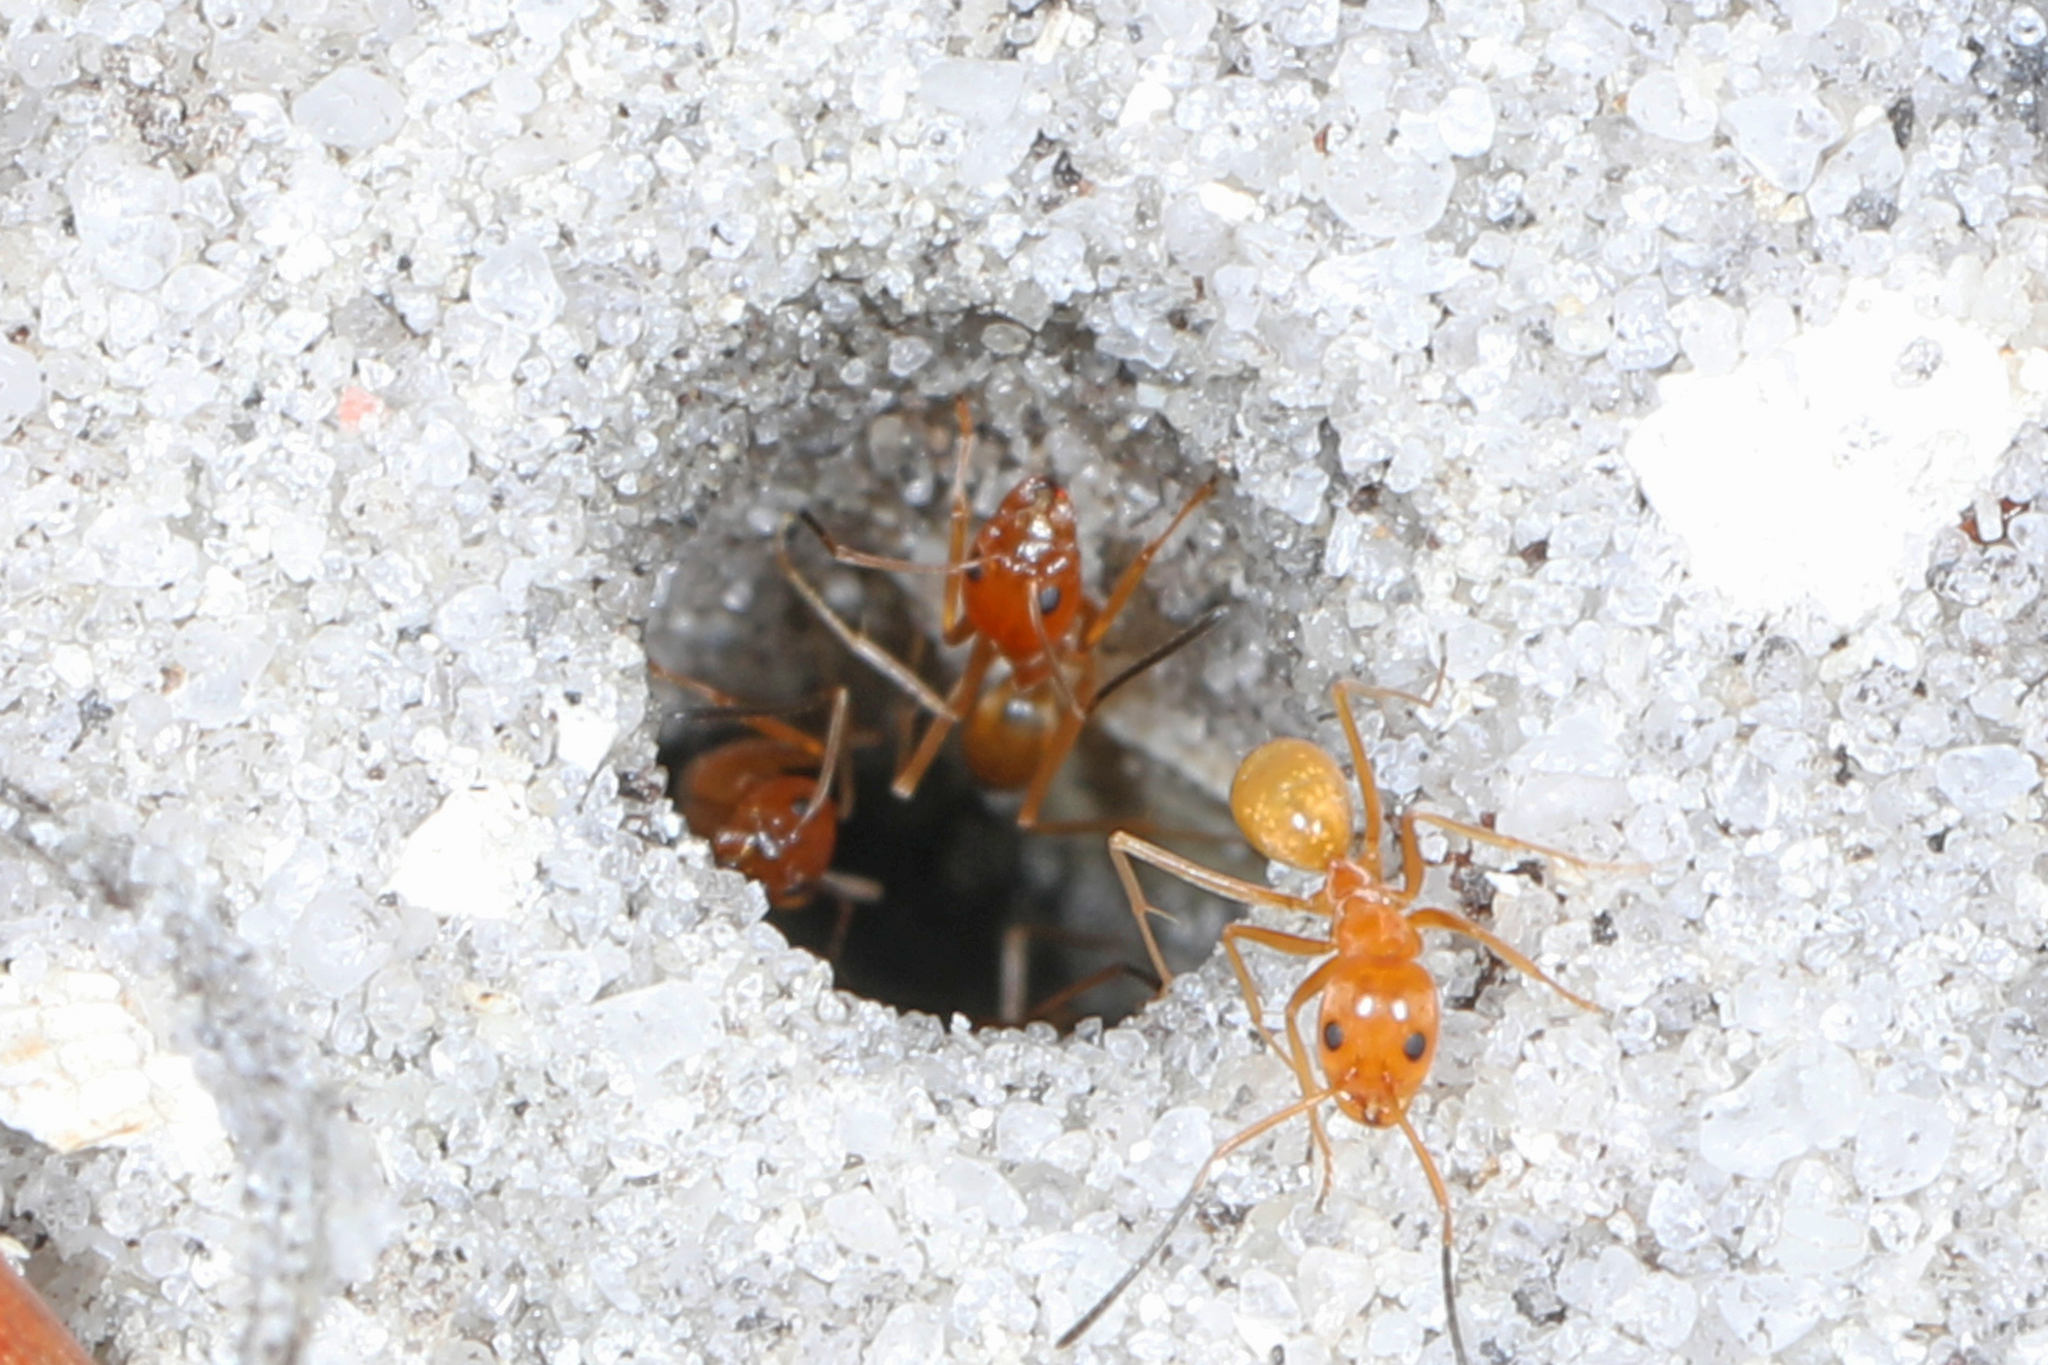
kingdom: Animalia
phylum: Arthropoda
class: Insecta
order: Hymenoptera
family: Formicidae
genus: Dorymyrmex
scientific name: Dorymyrmex bureni
